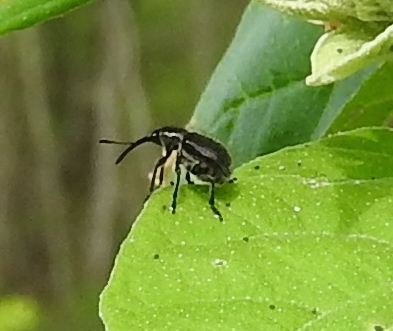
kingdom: Animalia
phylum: Arthropoda
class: Insecta
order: Coleoptera
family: Rhynchitidae
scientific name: Rhynchitidae
